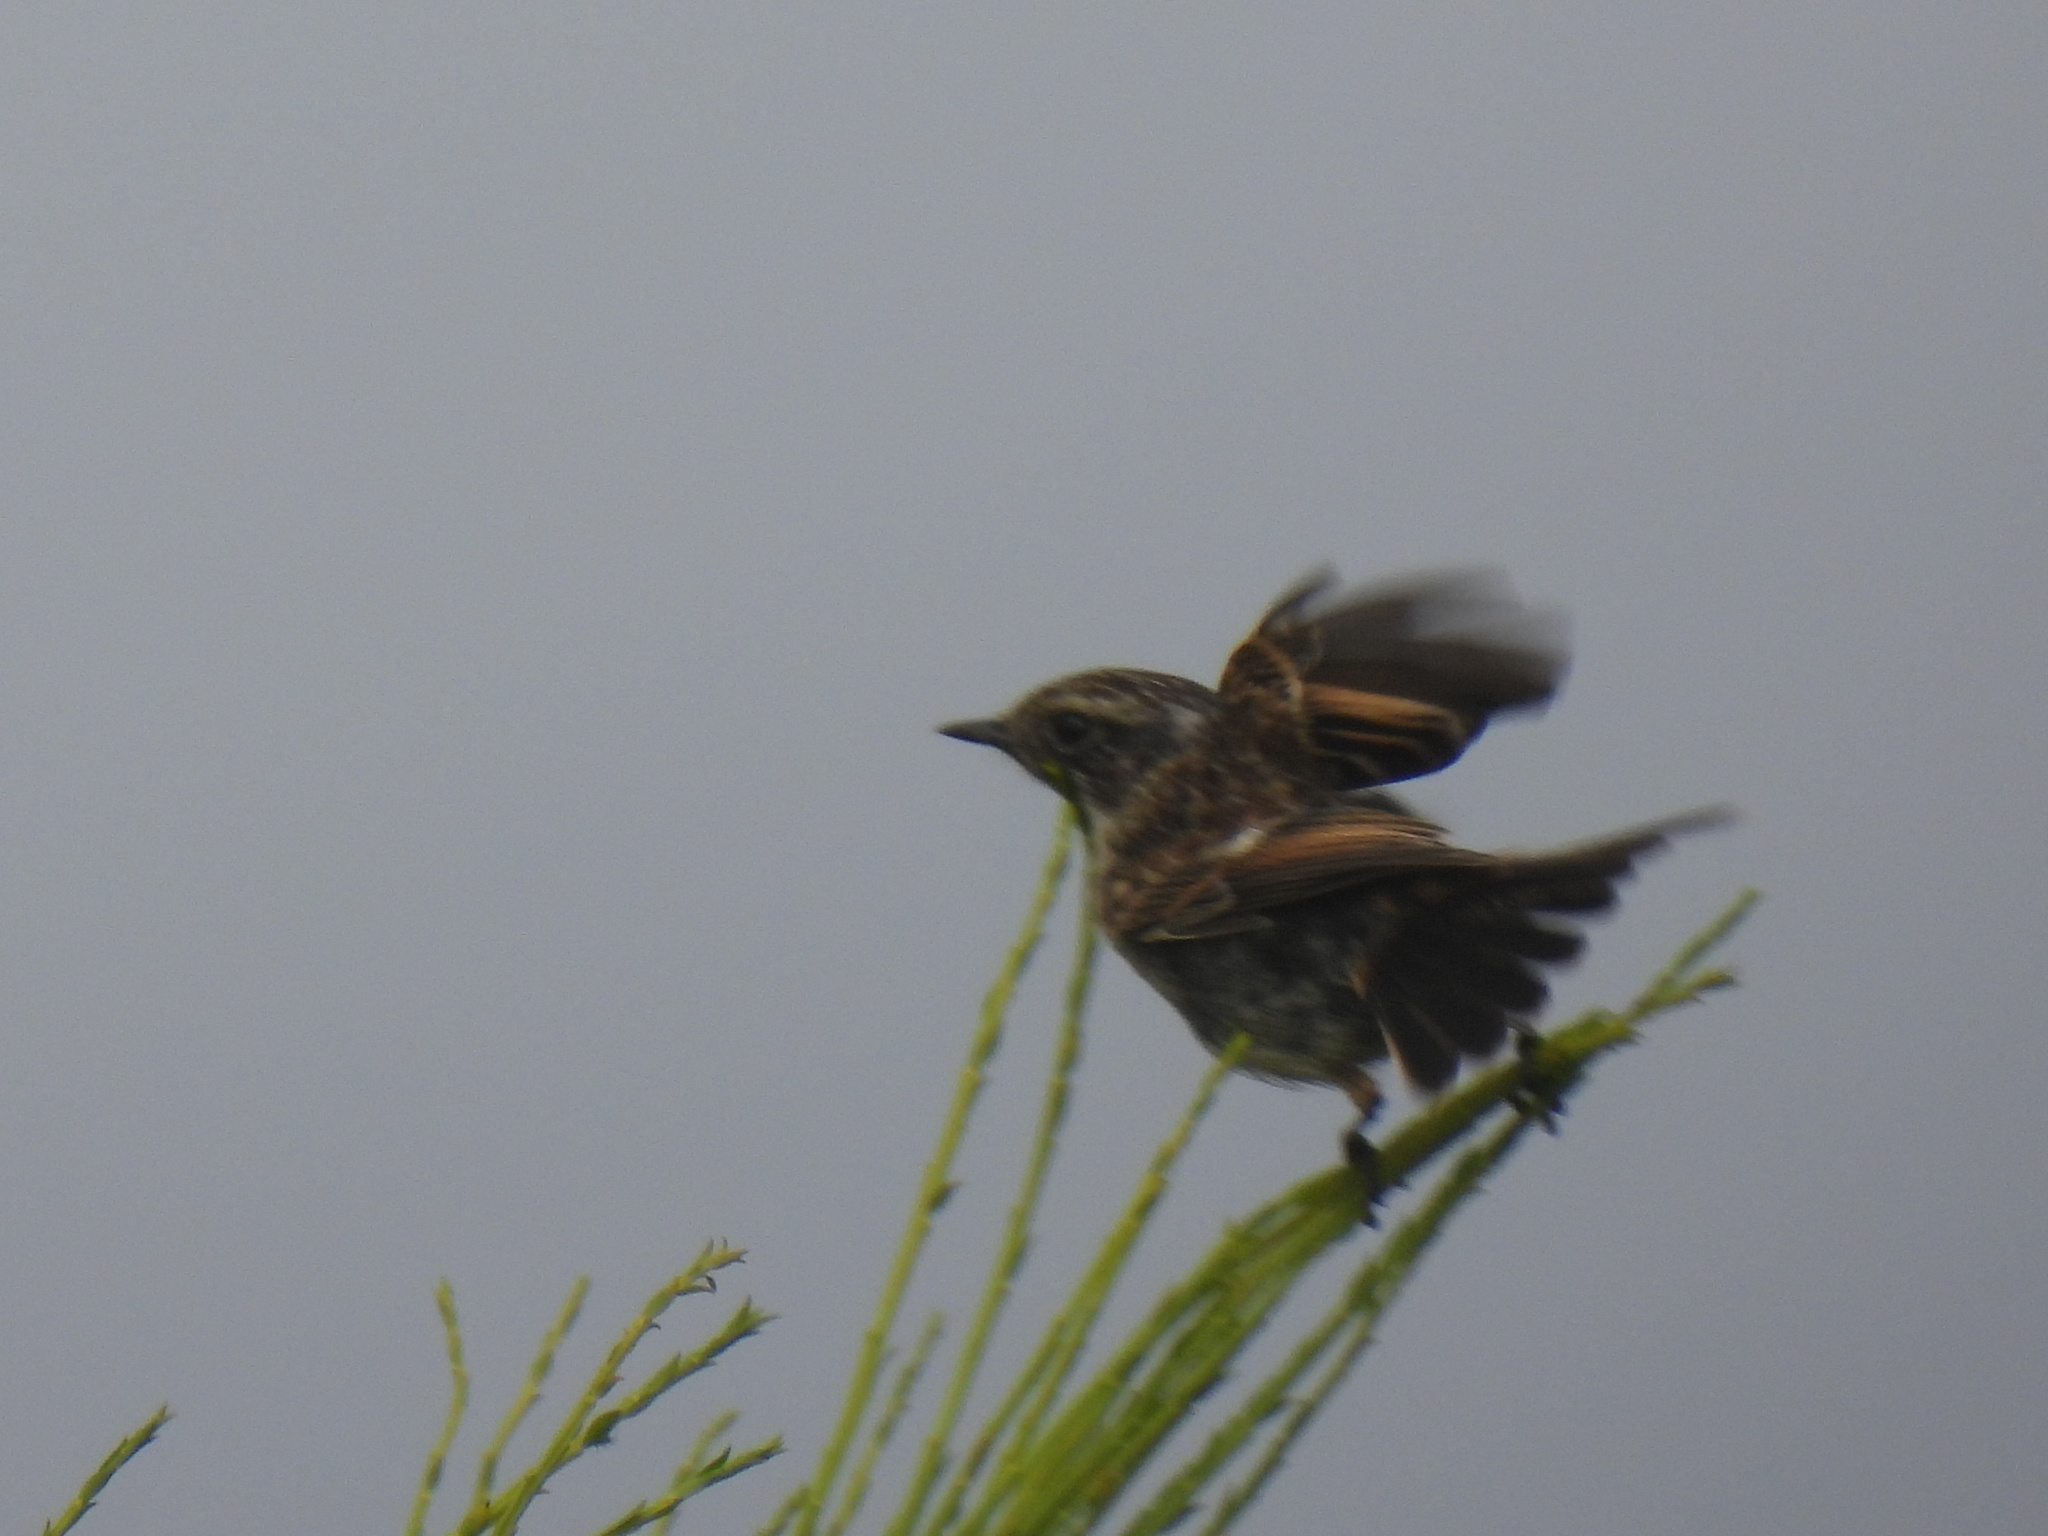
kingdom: Animalia
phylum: Chordata
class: Aves
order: Passeriformes
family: Muscicapidae
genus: Saxicola
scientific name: Saxicola rubicola
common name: European stonechat
